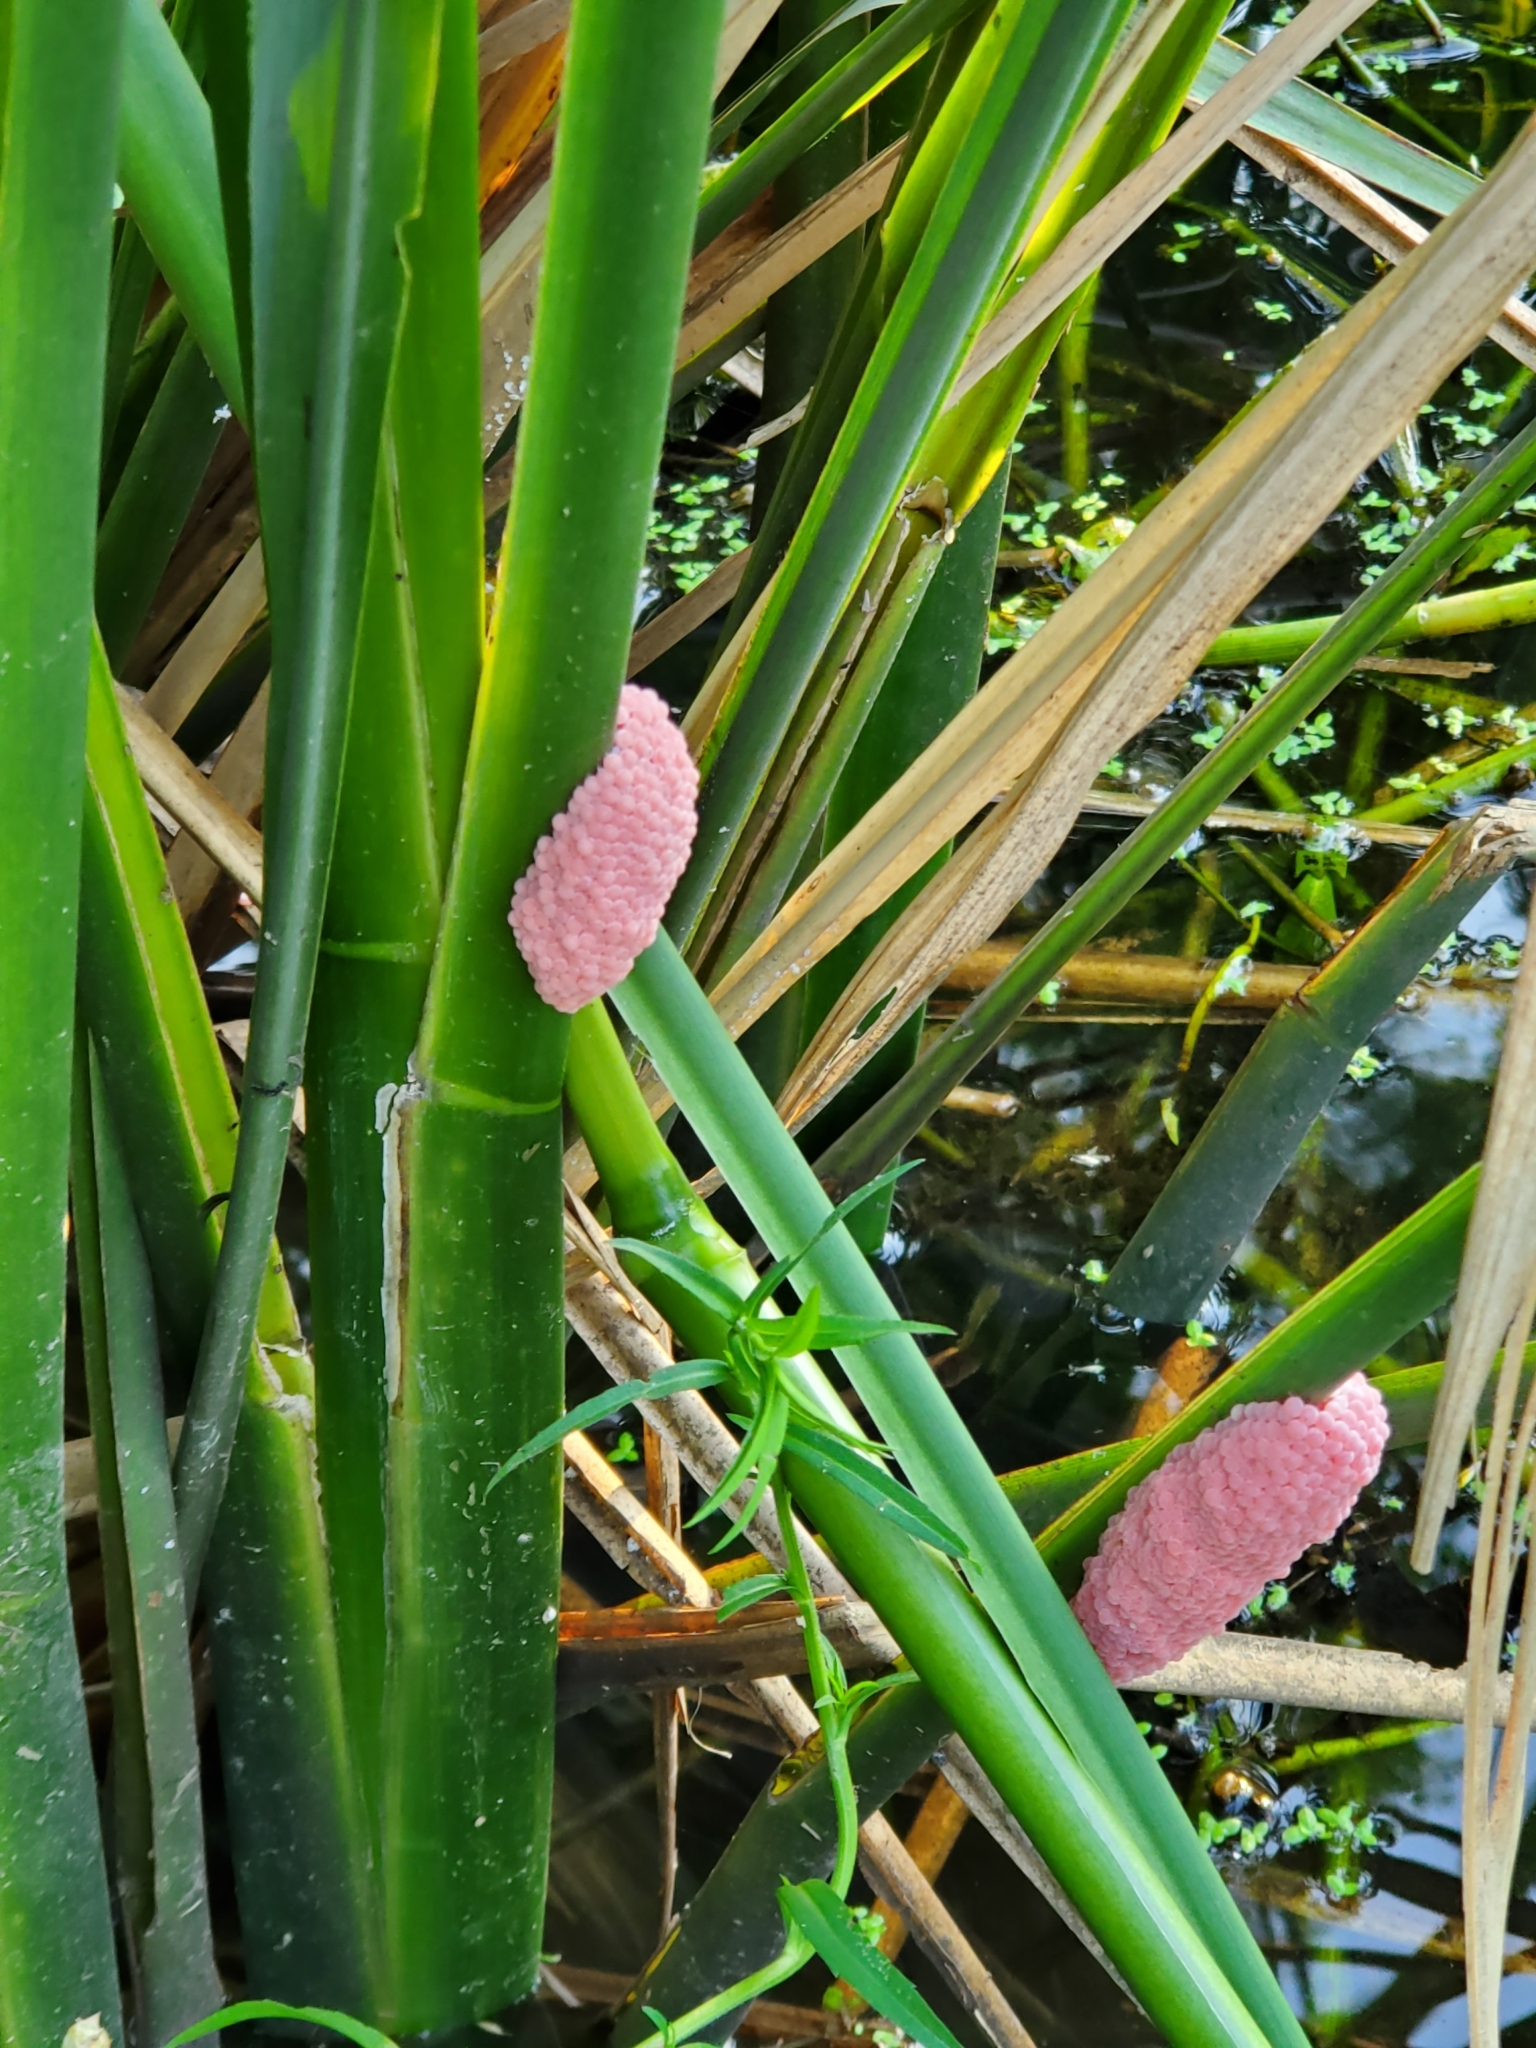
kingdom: Animalia
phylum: Mollusca
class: Gastropoda
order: Architaenioglossa
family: Ampullariidae
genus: Pomacea
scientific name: Pomacea maculata
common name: Giant applesnail
